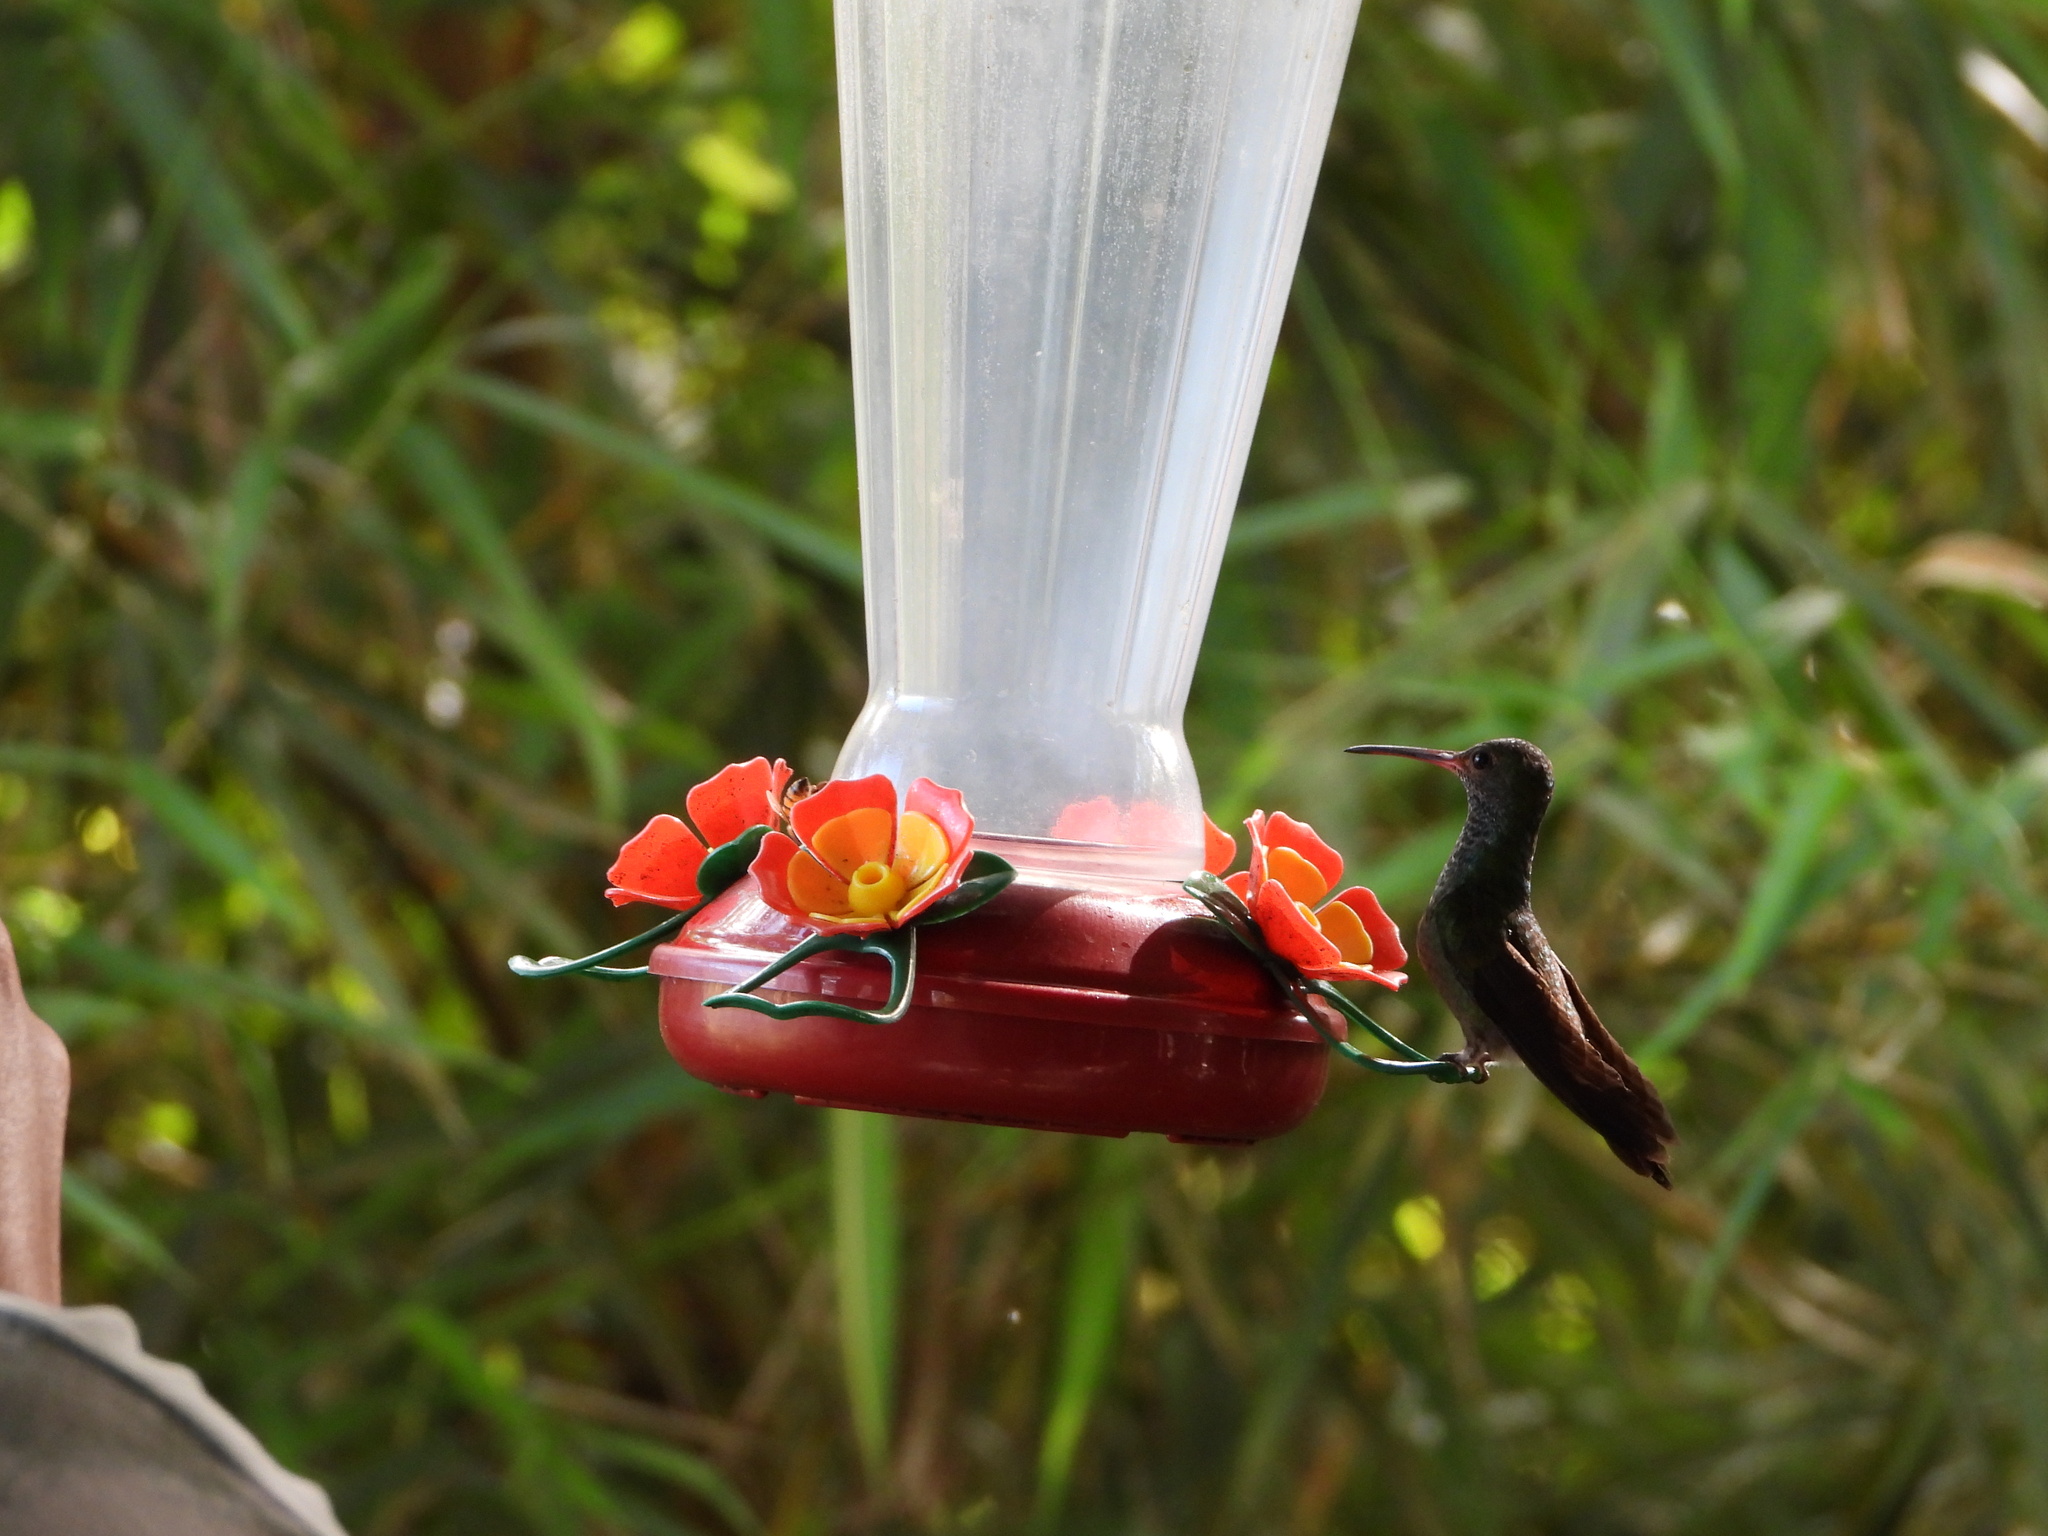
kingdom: Animalia
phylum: Chordata
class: Aves
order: Apodiformes
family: Trochilidae
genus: Amazilia
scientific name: Amazilia tzacatl
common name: Rufous-tailed hummingbird
